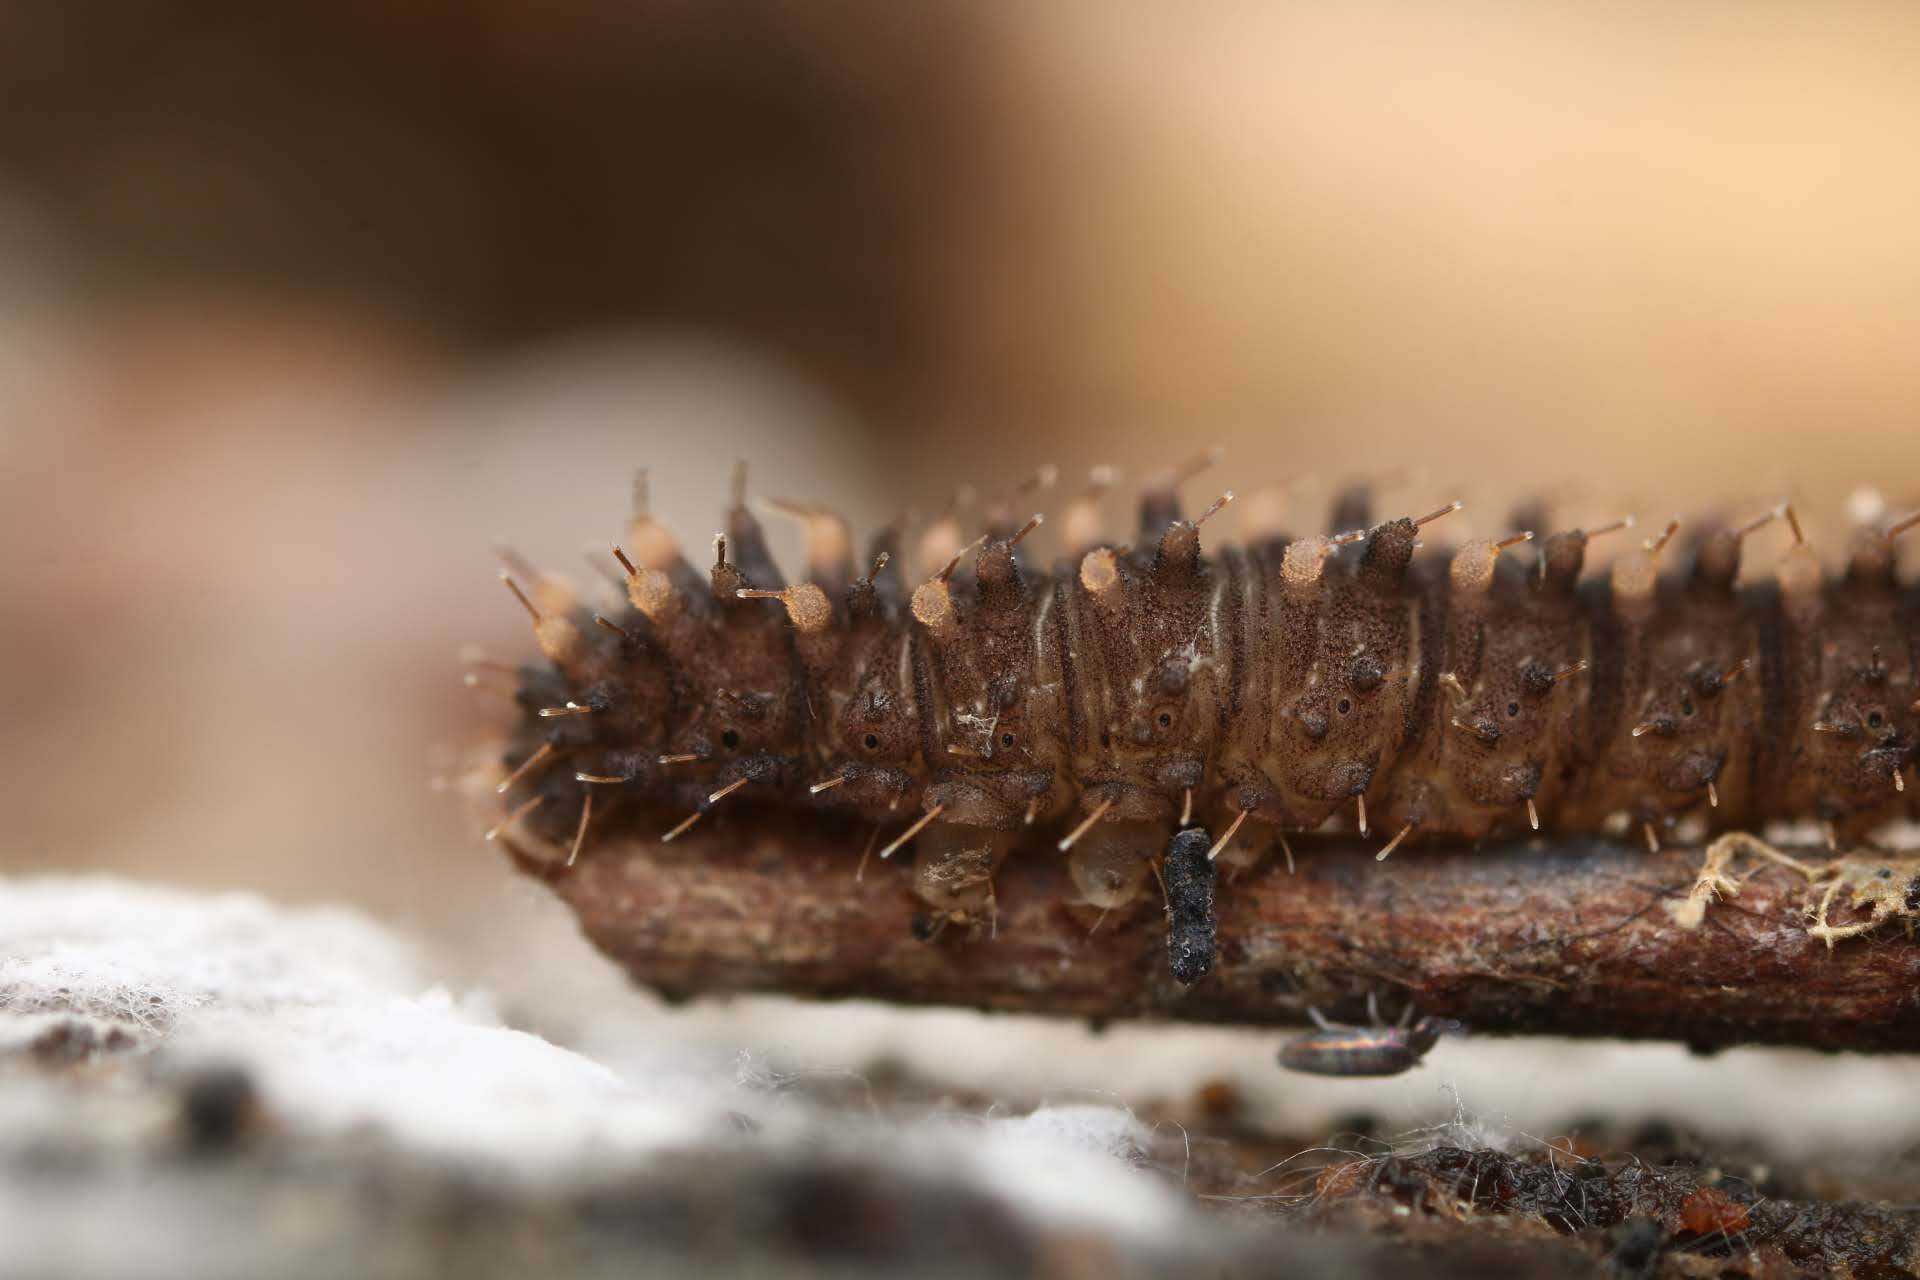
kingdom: Animalia
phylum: Arthropoda
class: Insecta
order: Lepidoptera
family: Erebidae
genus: Idia
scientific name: Idia lubricalis
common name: Twin-striped tabby
